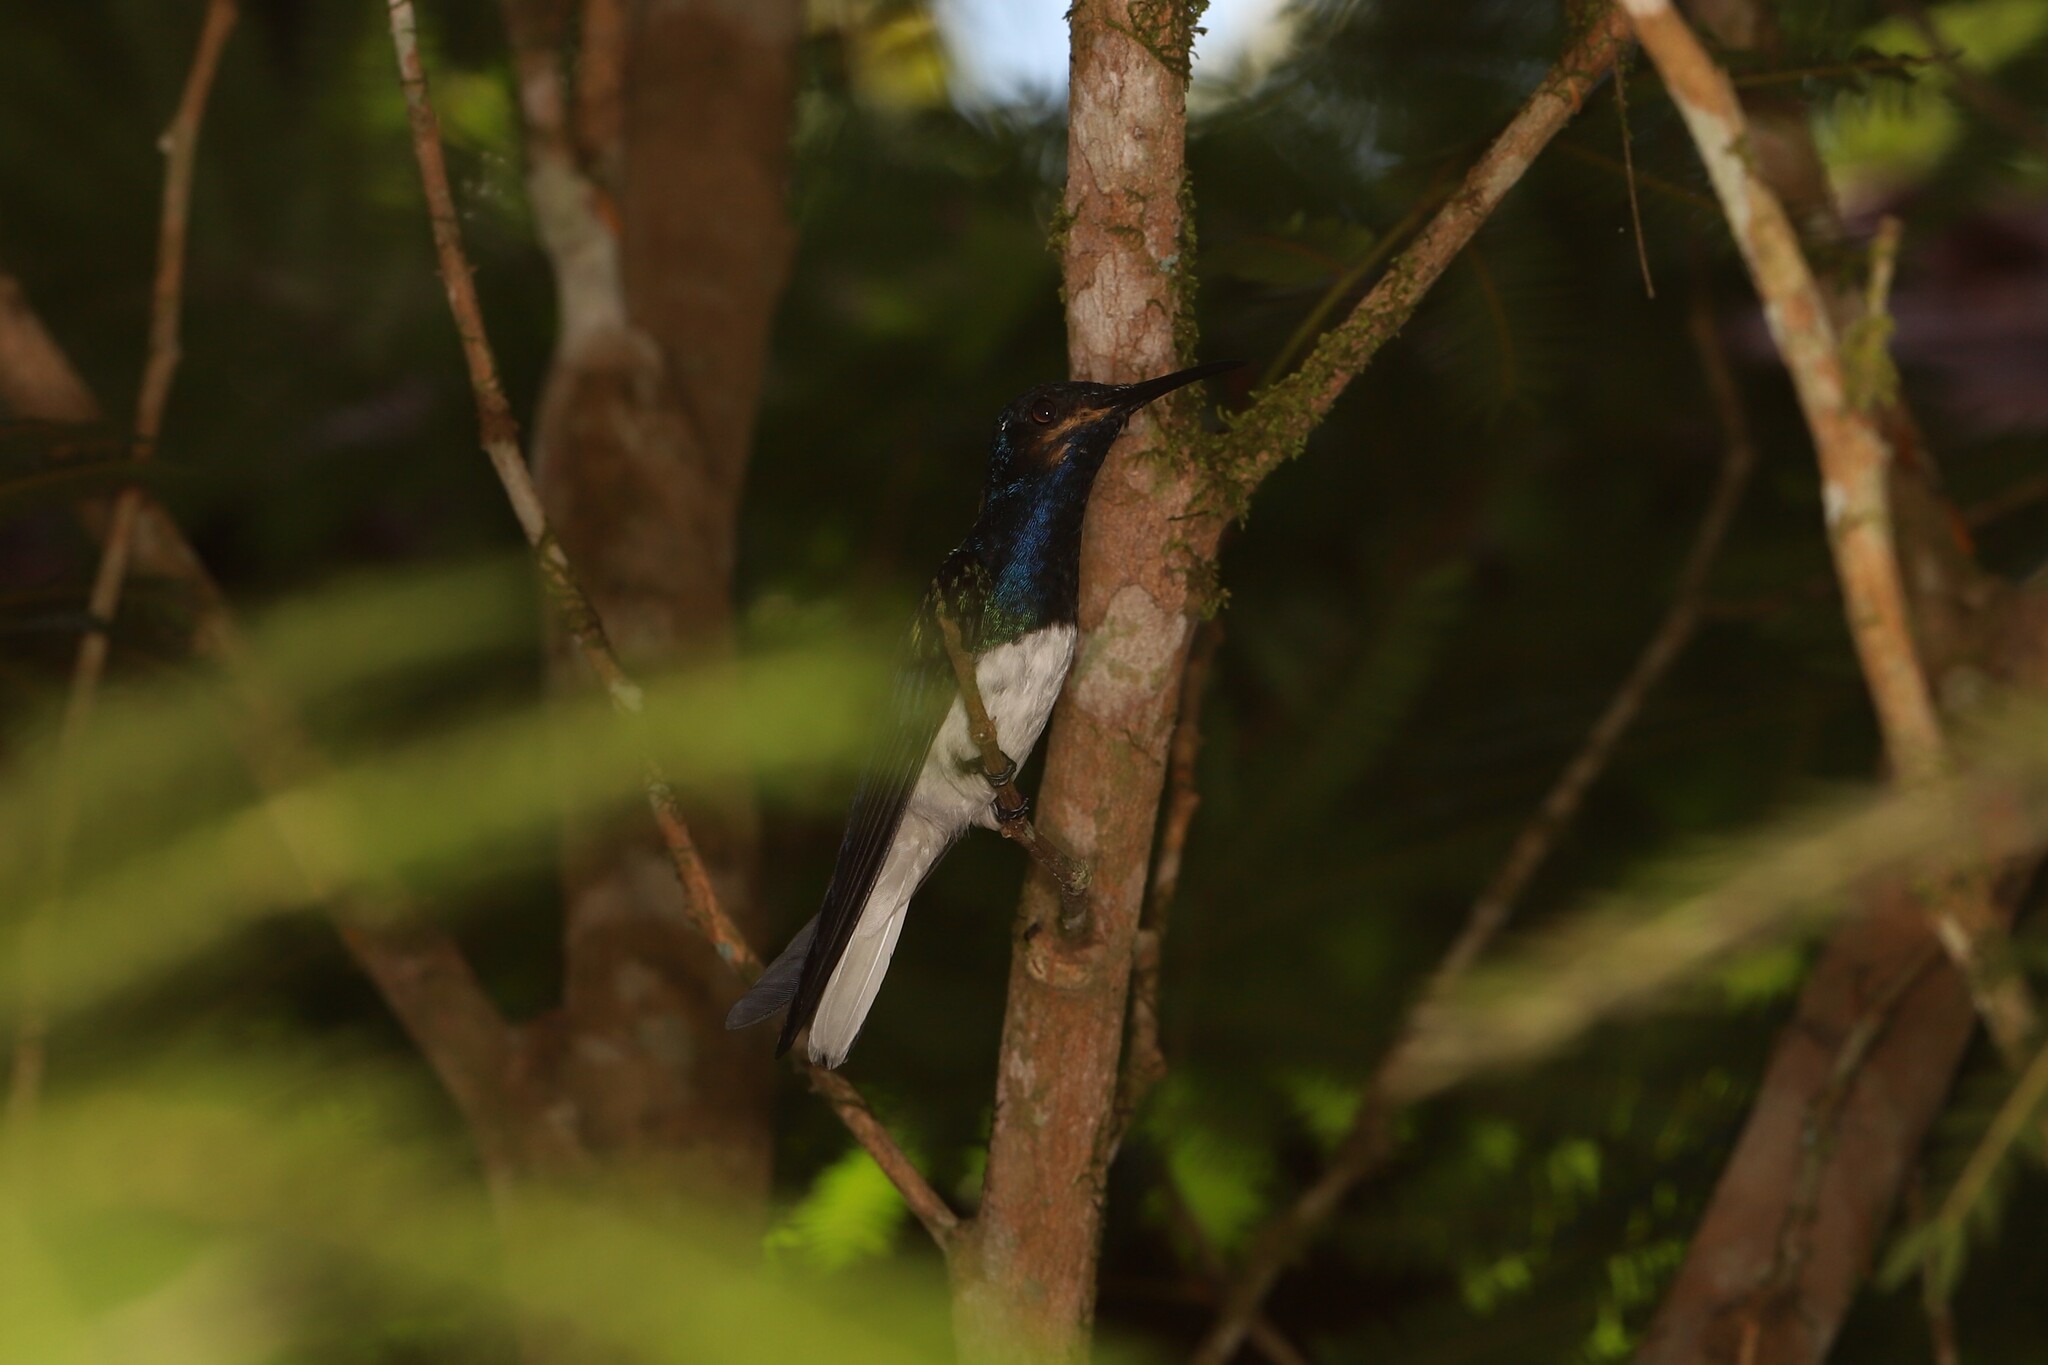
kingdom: Animalia
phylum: Chordata
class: Aves
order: Apodiformes
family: Trochilidae
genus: Florisuga
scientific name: Florisuga mellivora
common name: White-necked jacobin
